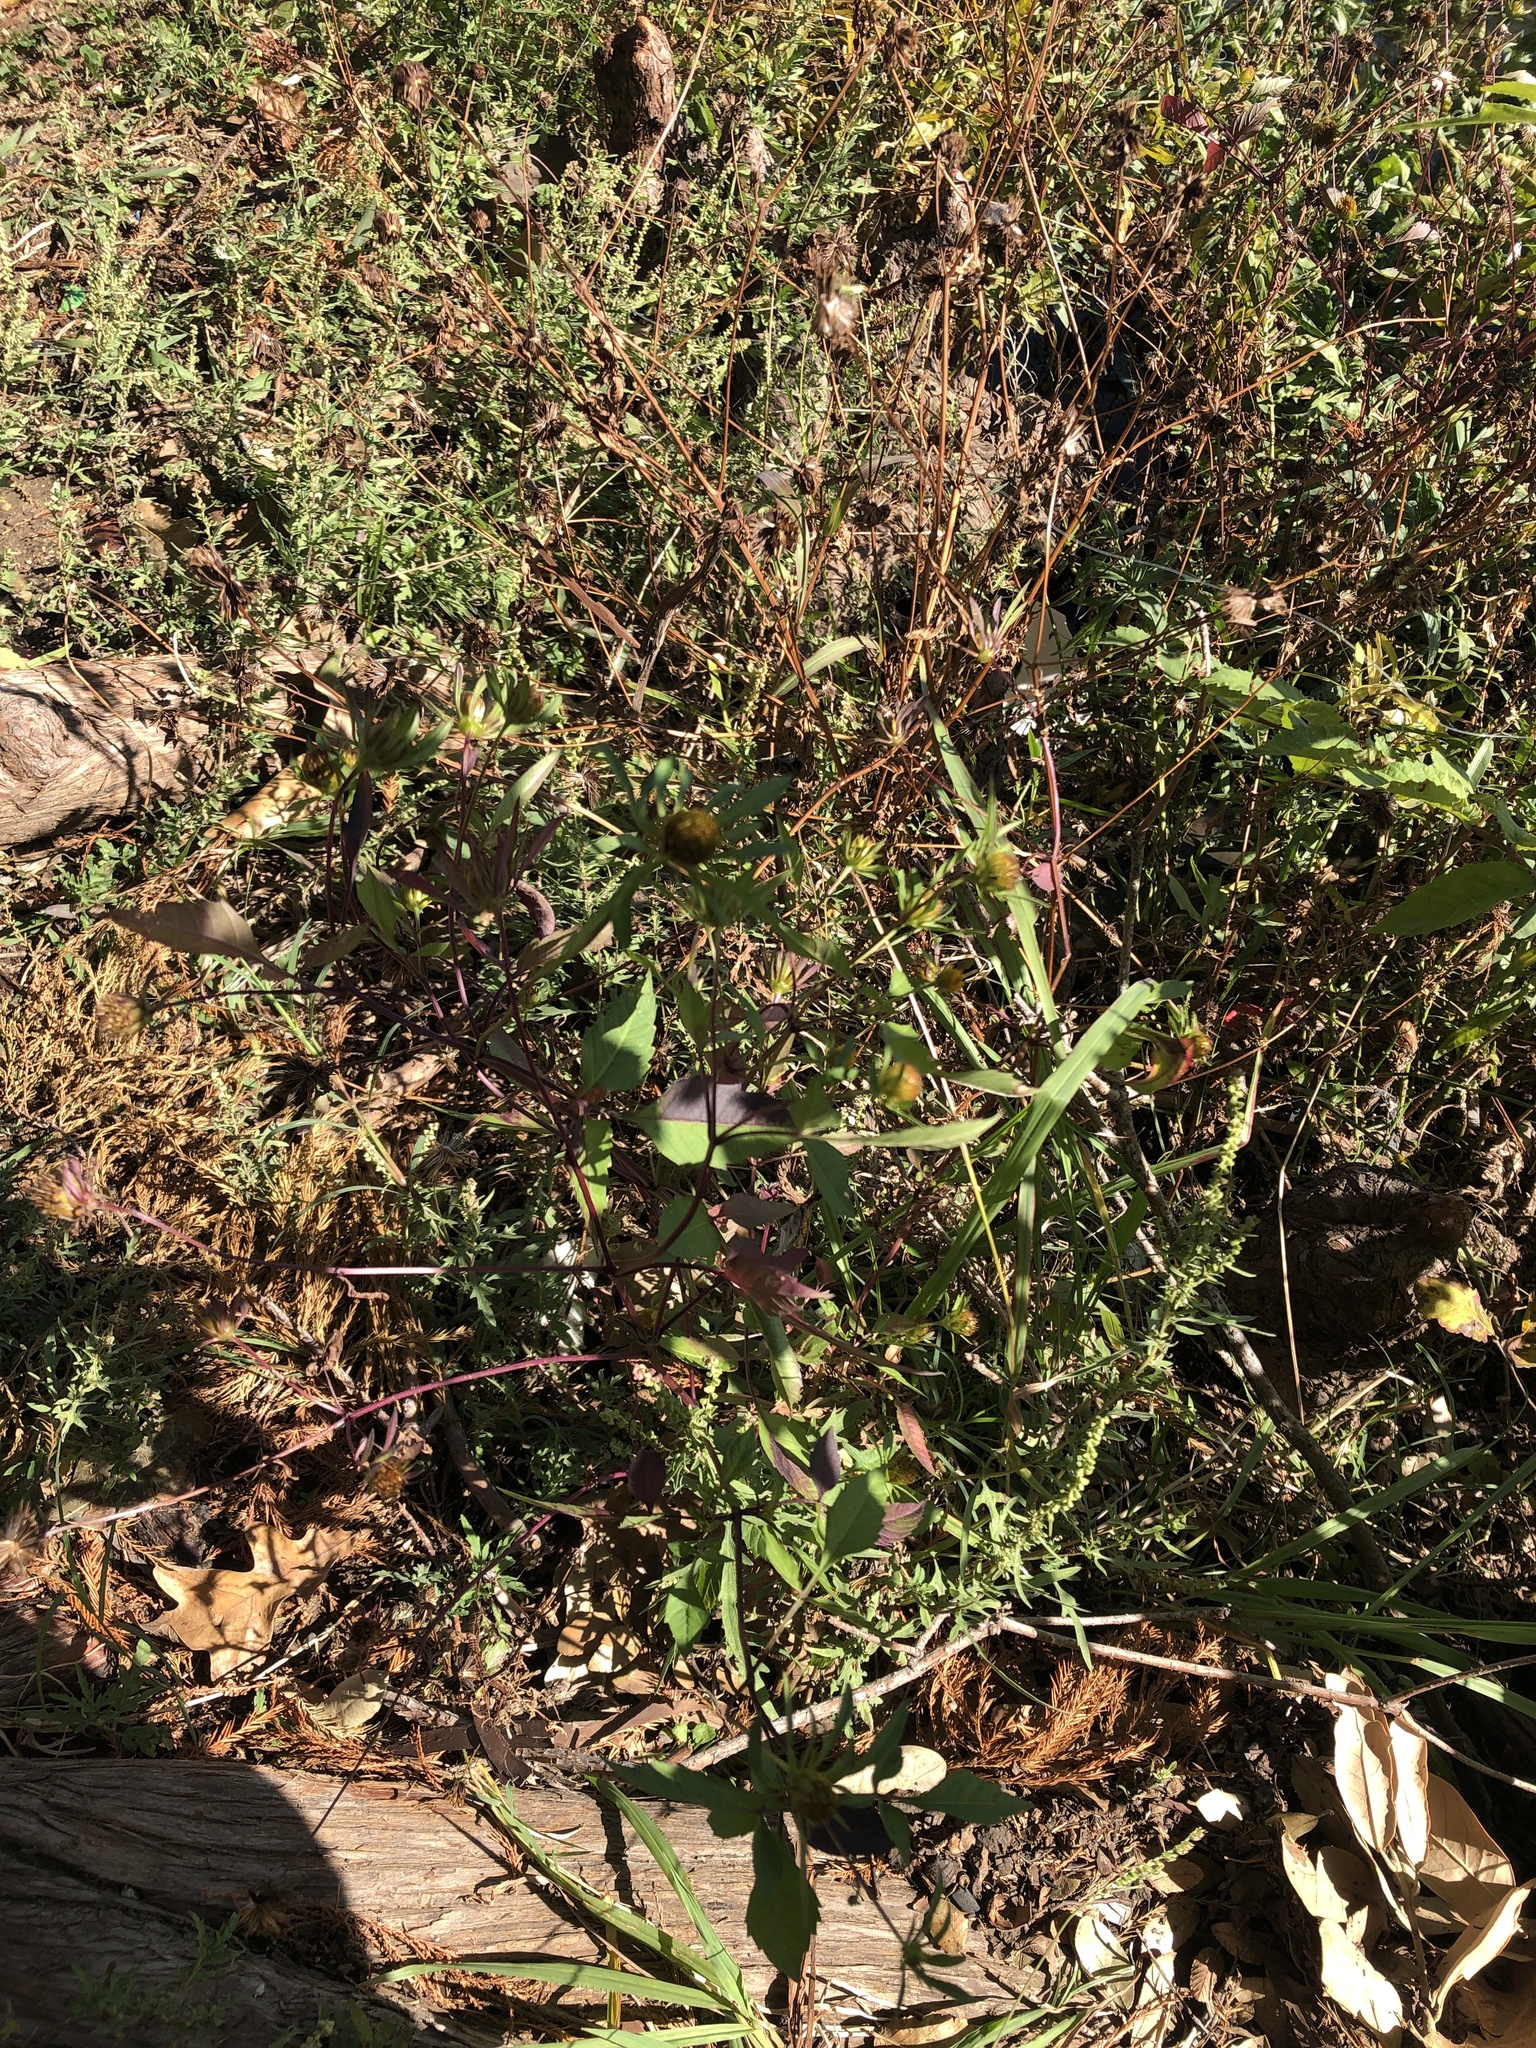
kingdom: Plantae
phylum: Tracheophyta
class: Magnoliopsida
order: Asterales
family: Asteraceae
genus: Bidens
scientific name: Bidens frondosa
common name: Beggarticks
